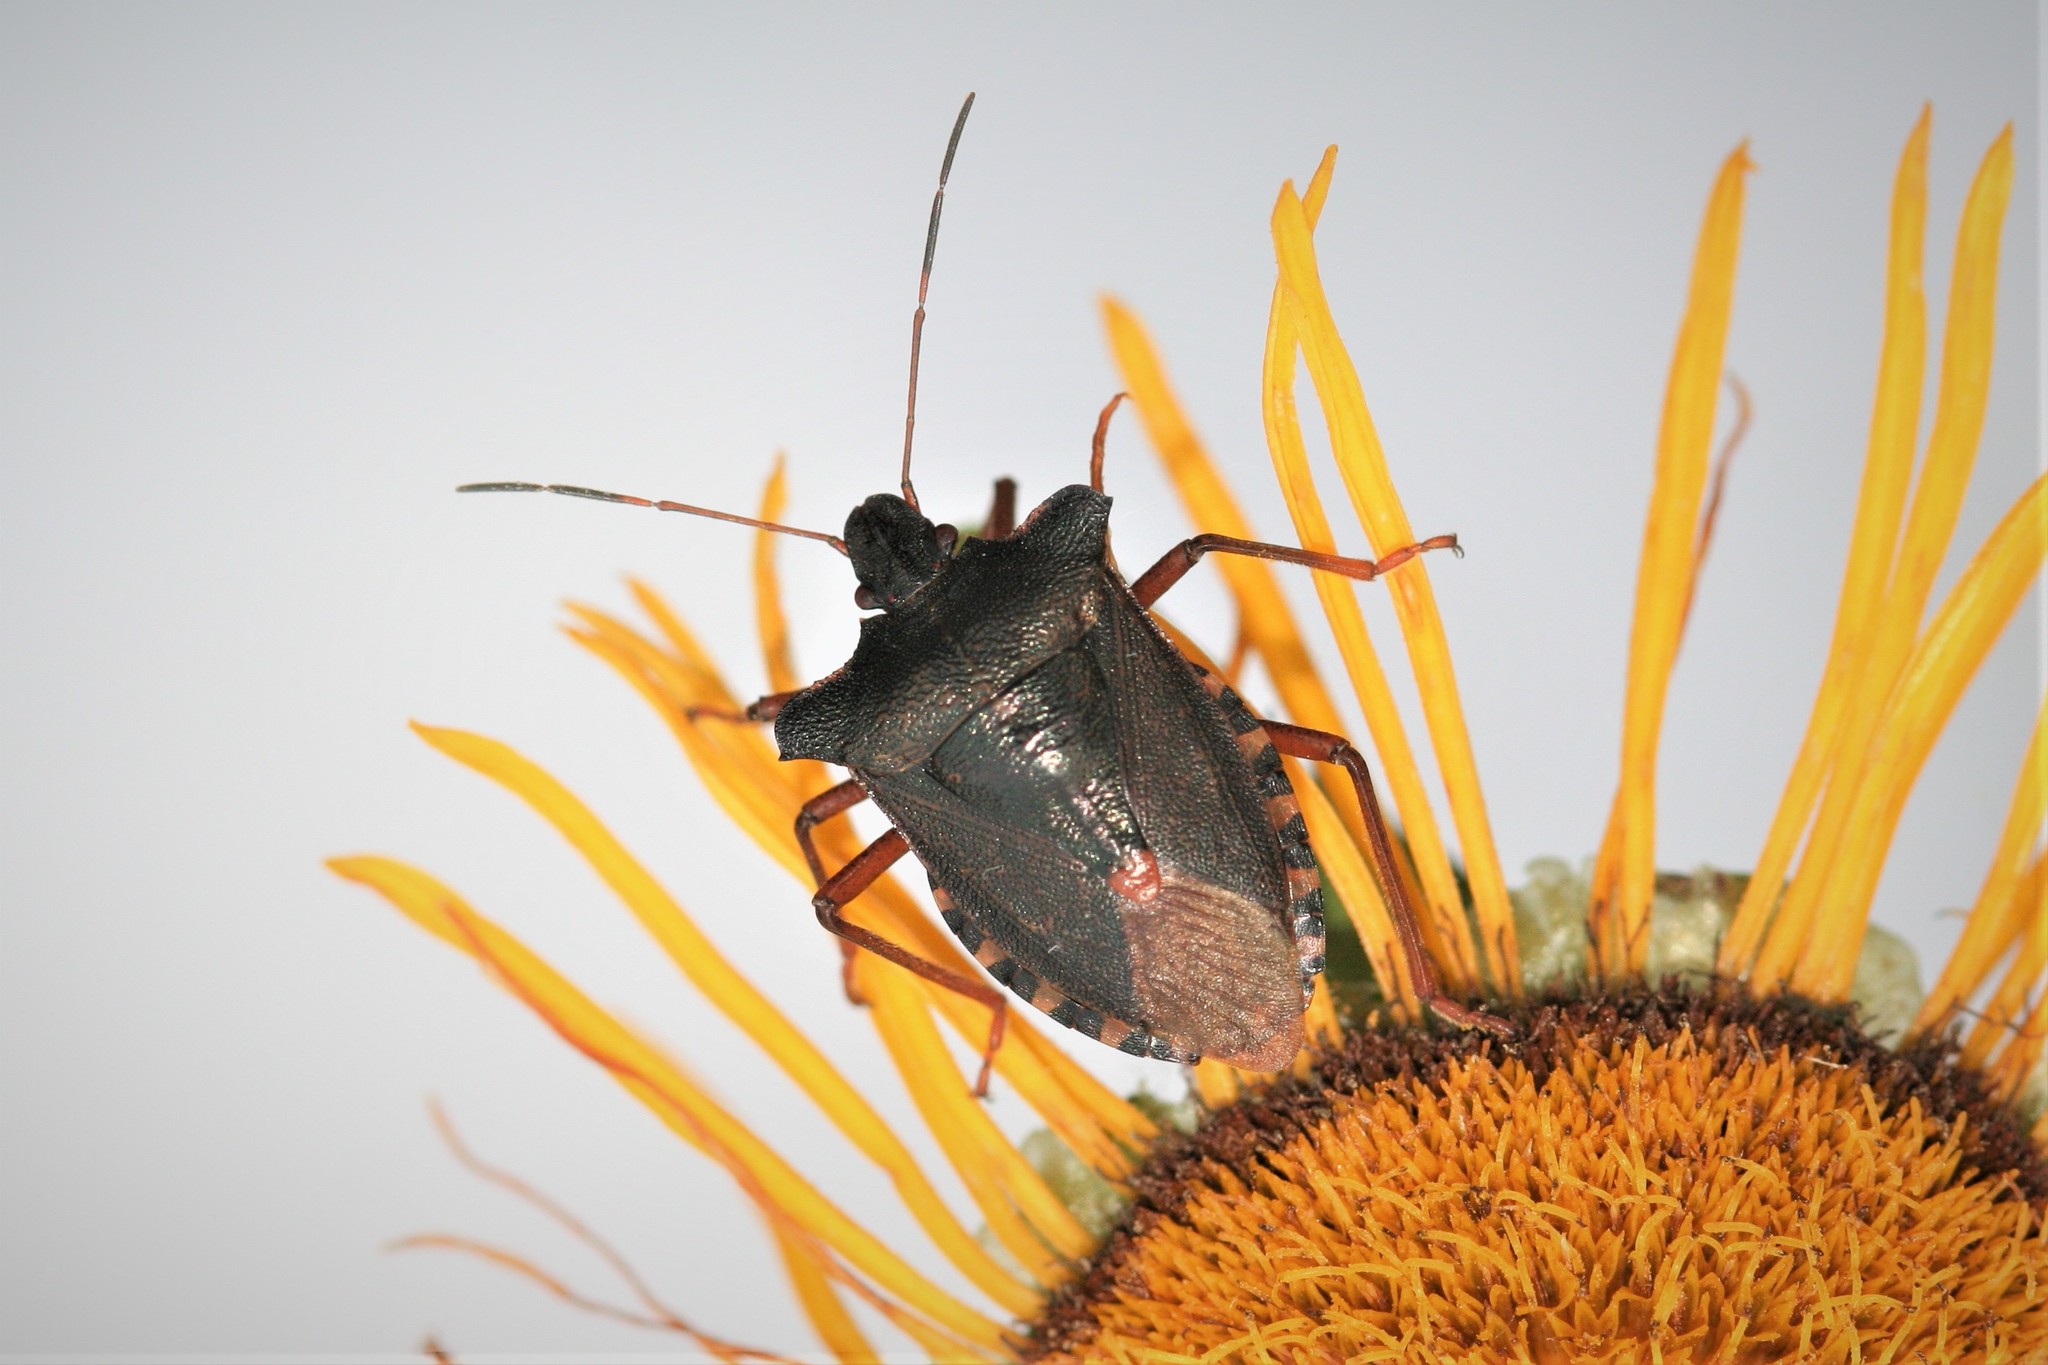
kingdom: Animalia
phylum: Arthropoda
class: Insecta
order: Hemiptera
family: Pentatomidae
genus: Pentatoma
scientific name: Pentatoma rufipes
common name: Forest bug
